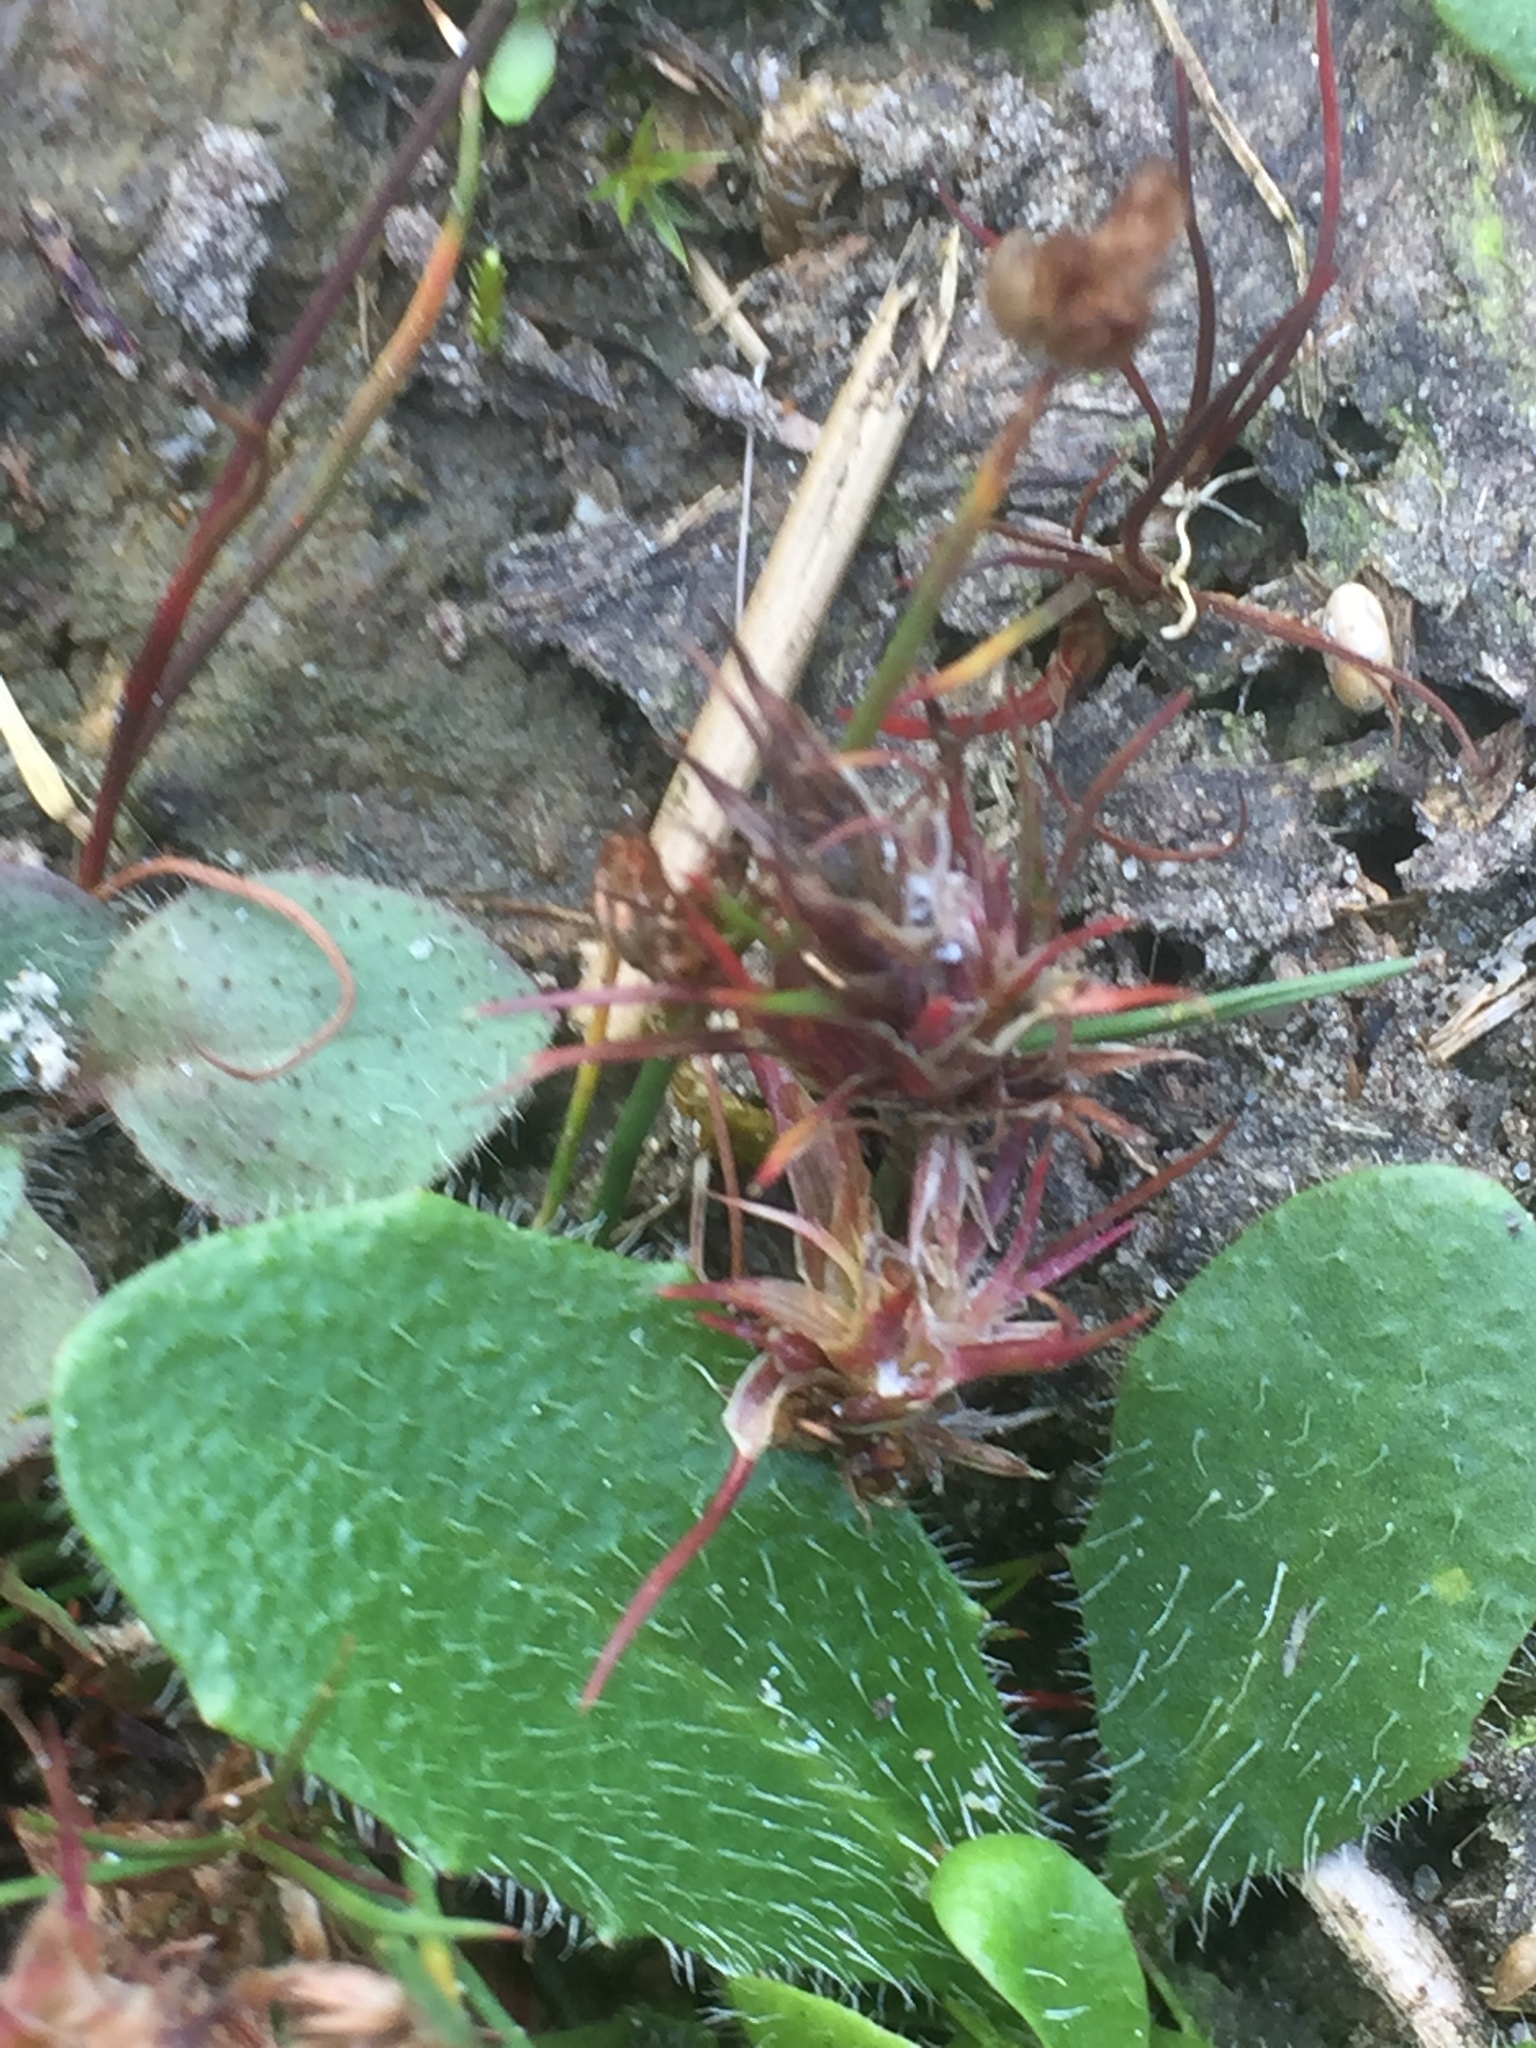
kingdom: Plantae
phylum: Tracheophyta
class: Liliopsida
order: Poales
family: Juncaceae
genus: Juncus
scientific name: Juncus bulbosus
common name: Bulbous rush
